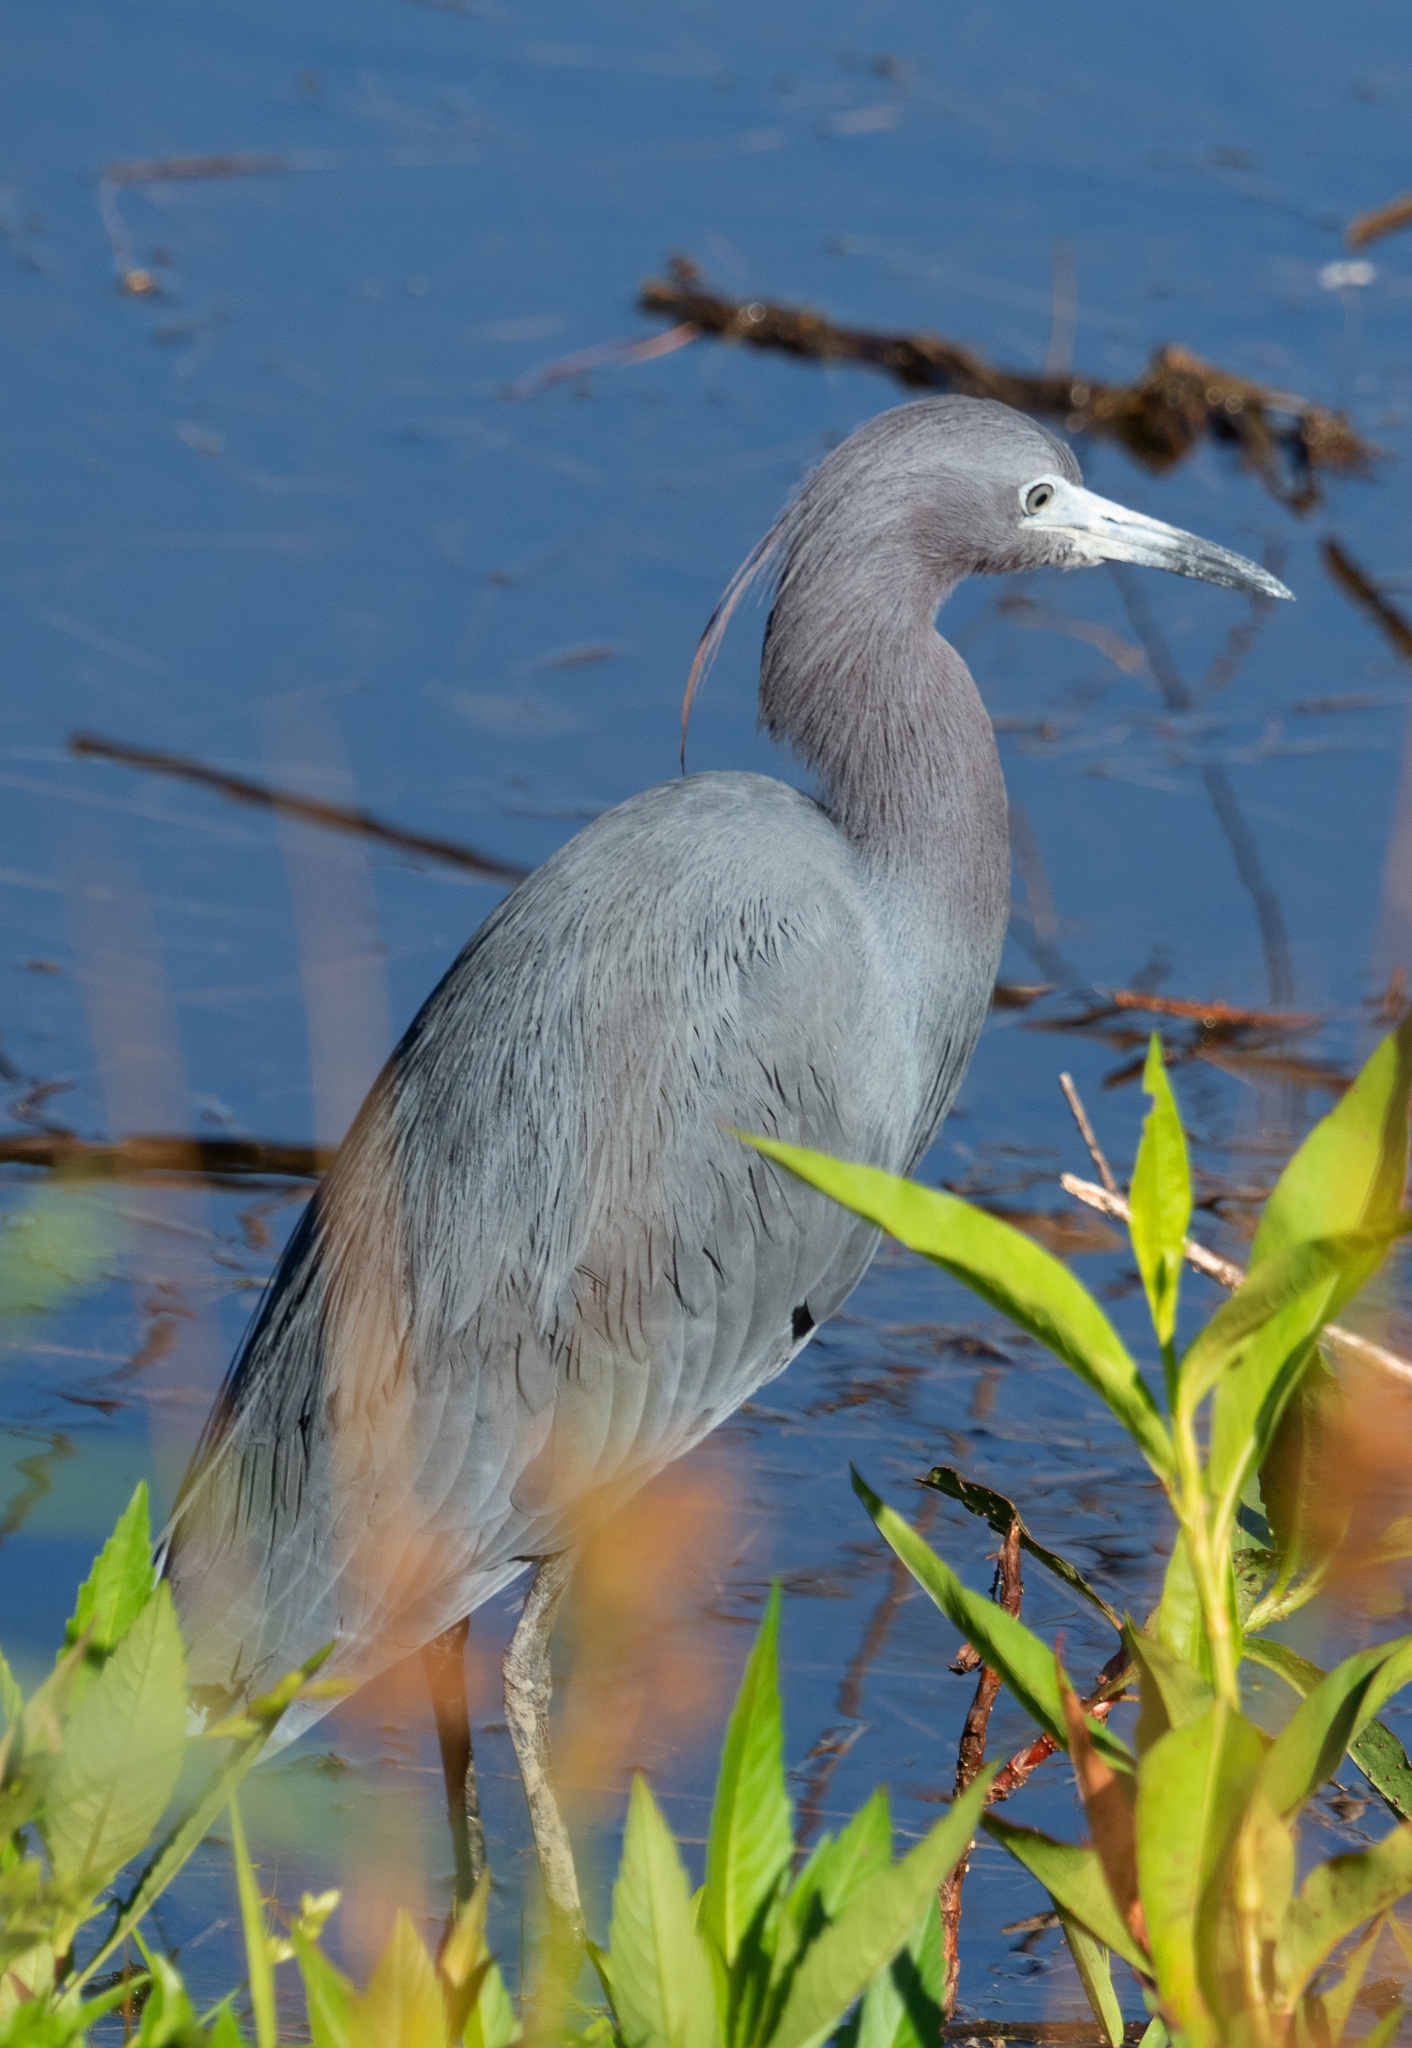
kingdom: Animalia
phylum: Chordata
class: Aves
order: Pelecaniformes
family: Ardeidae
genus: Egretta
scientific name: Egretta caerulea
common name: Little blue heron
